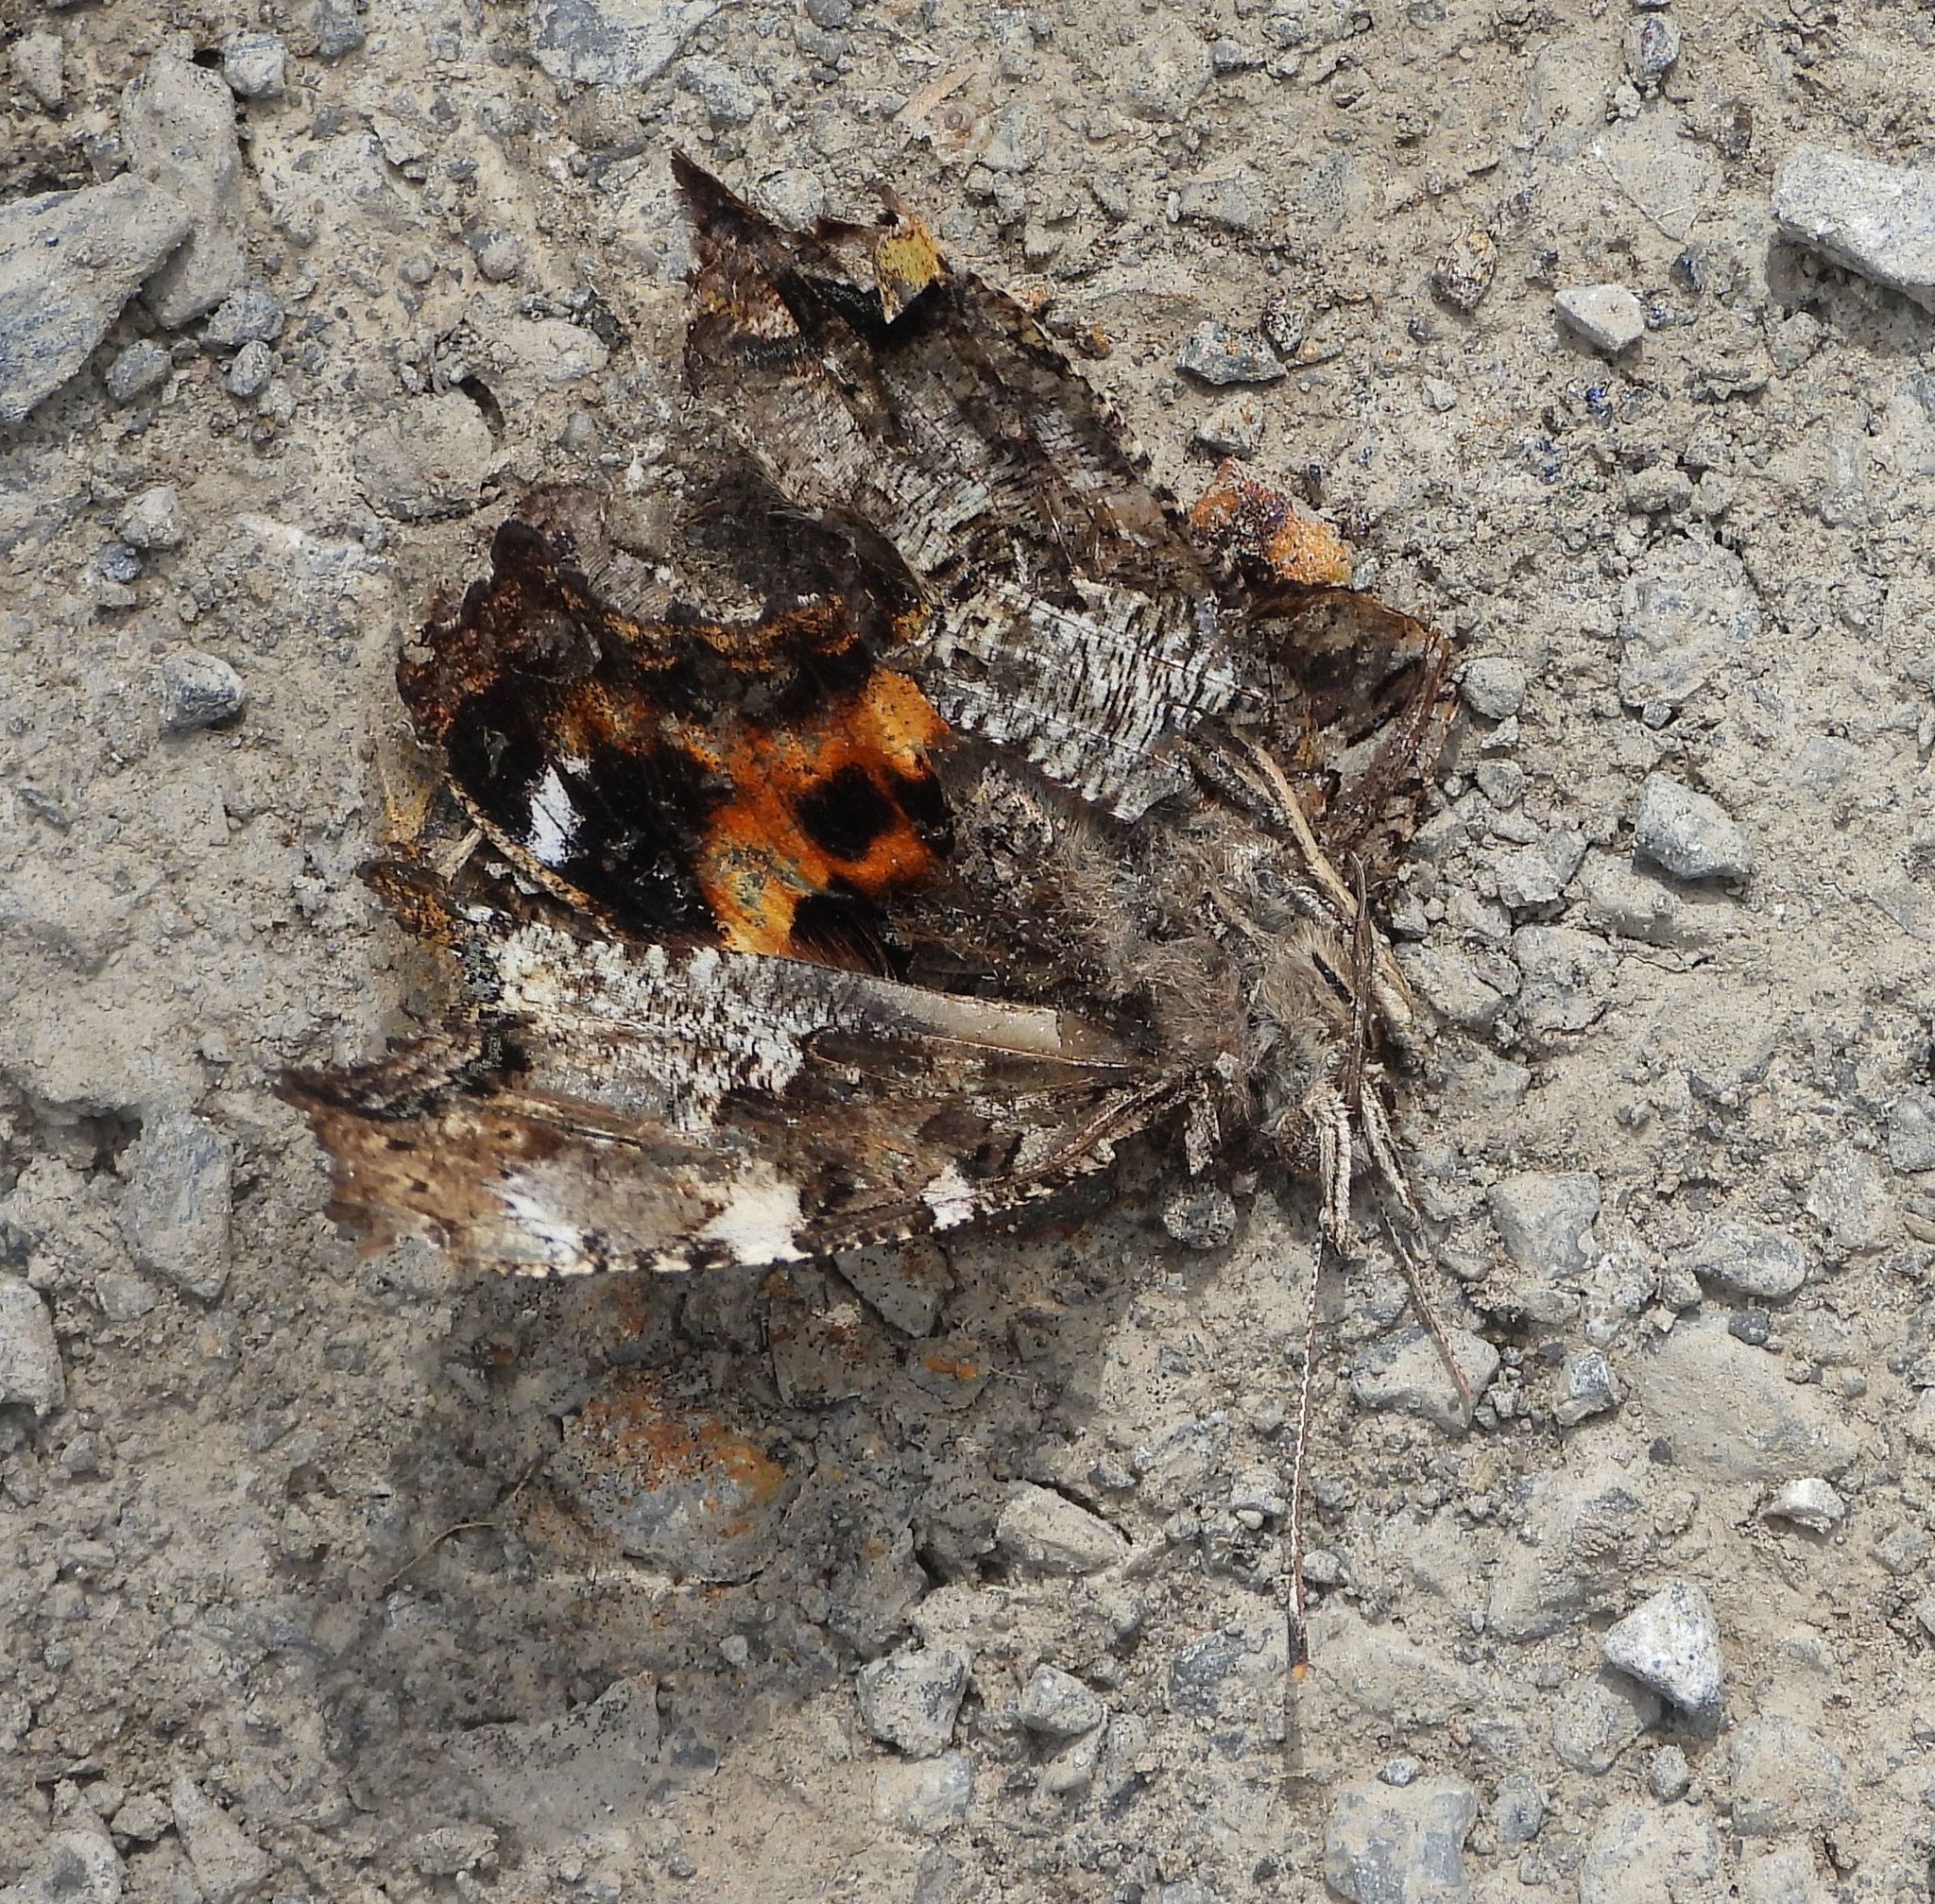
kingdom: Animalia
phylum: Arthropoda
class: Insecta
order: Lepidoptera
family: Nymphalidae
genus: Polygonia
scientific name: Polygonia vaualbum
